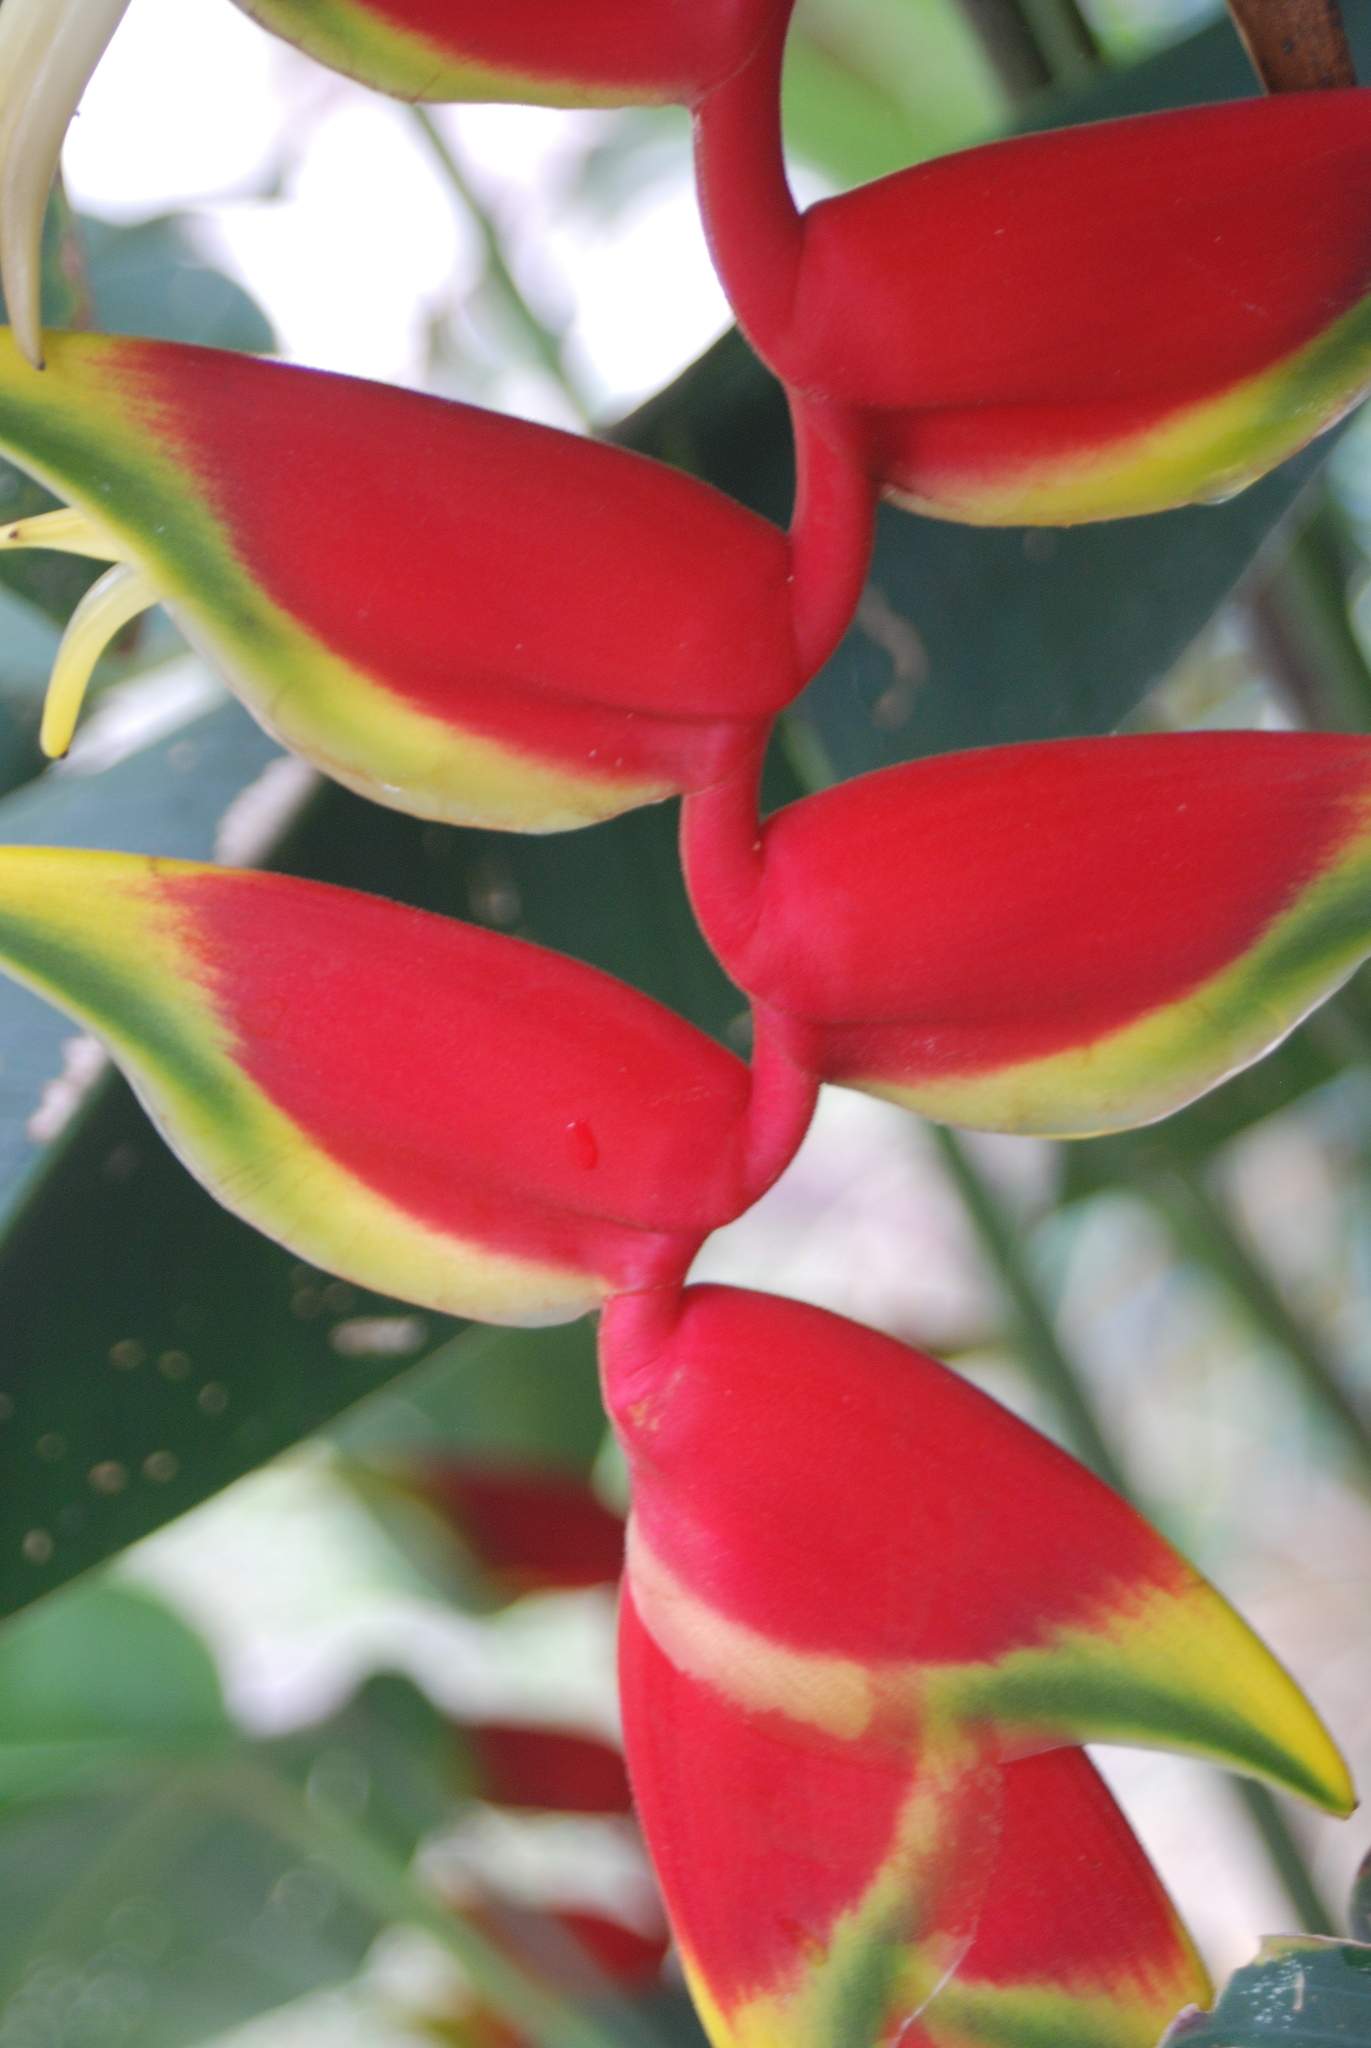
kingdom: Plantae
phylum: Tracheophyta
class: Liliopsida
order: Zingiberales
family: Heliconiaceae
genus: Heliconia
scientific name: Heliconia rostrata
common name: False bird of paradise
